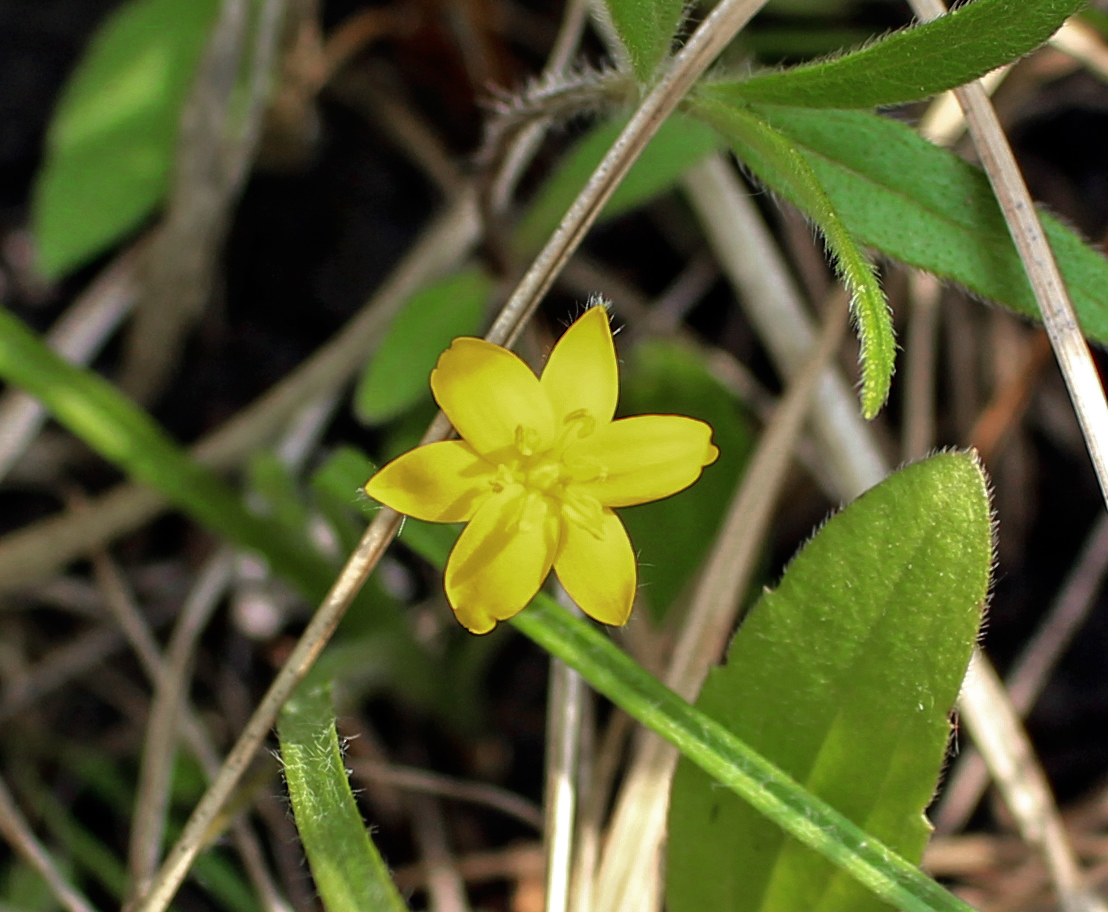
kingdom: Plantae
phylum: Tracheophyta
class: Liliopsida
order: Asparagales
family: Hypoxidaceae
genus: Hypoxis
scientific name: Hypoxis hirsuta
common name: Common goldstar
